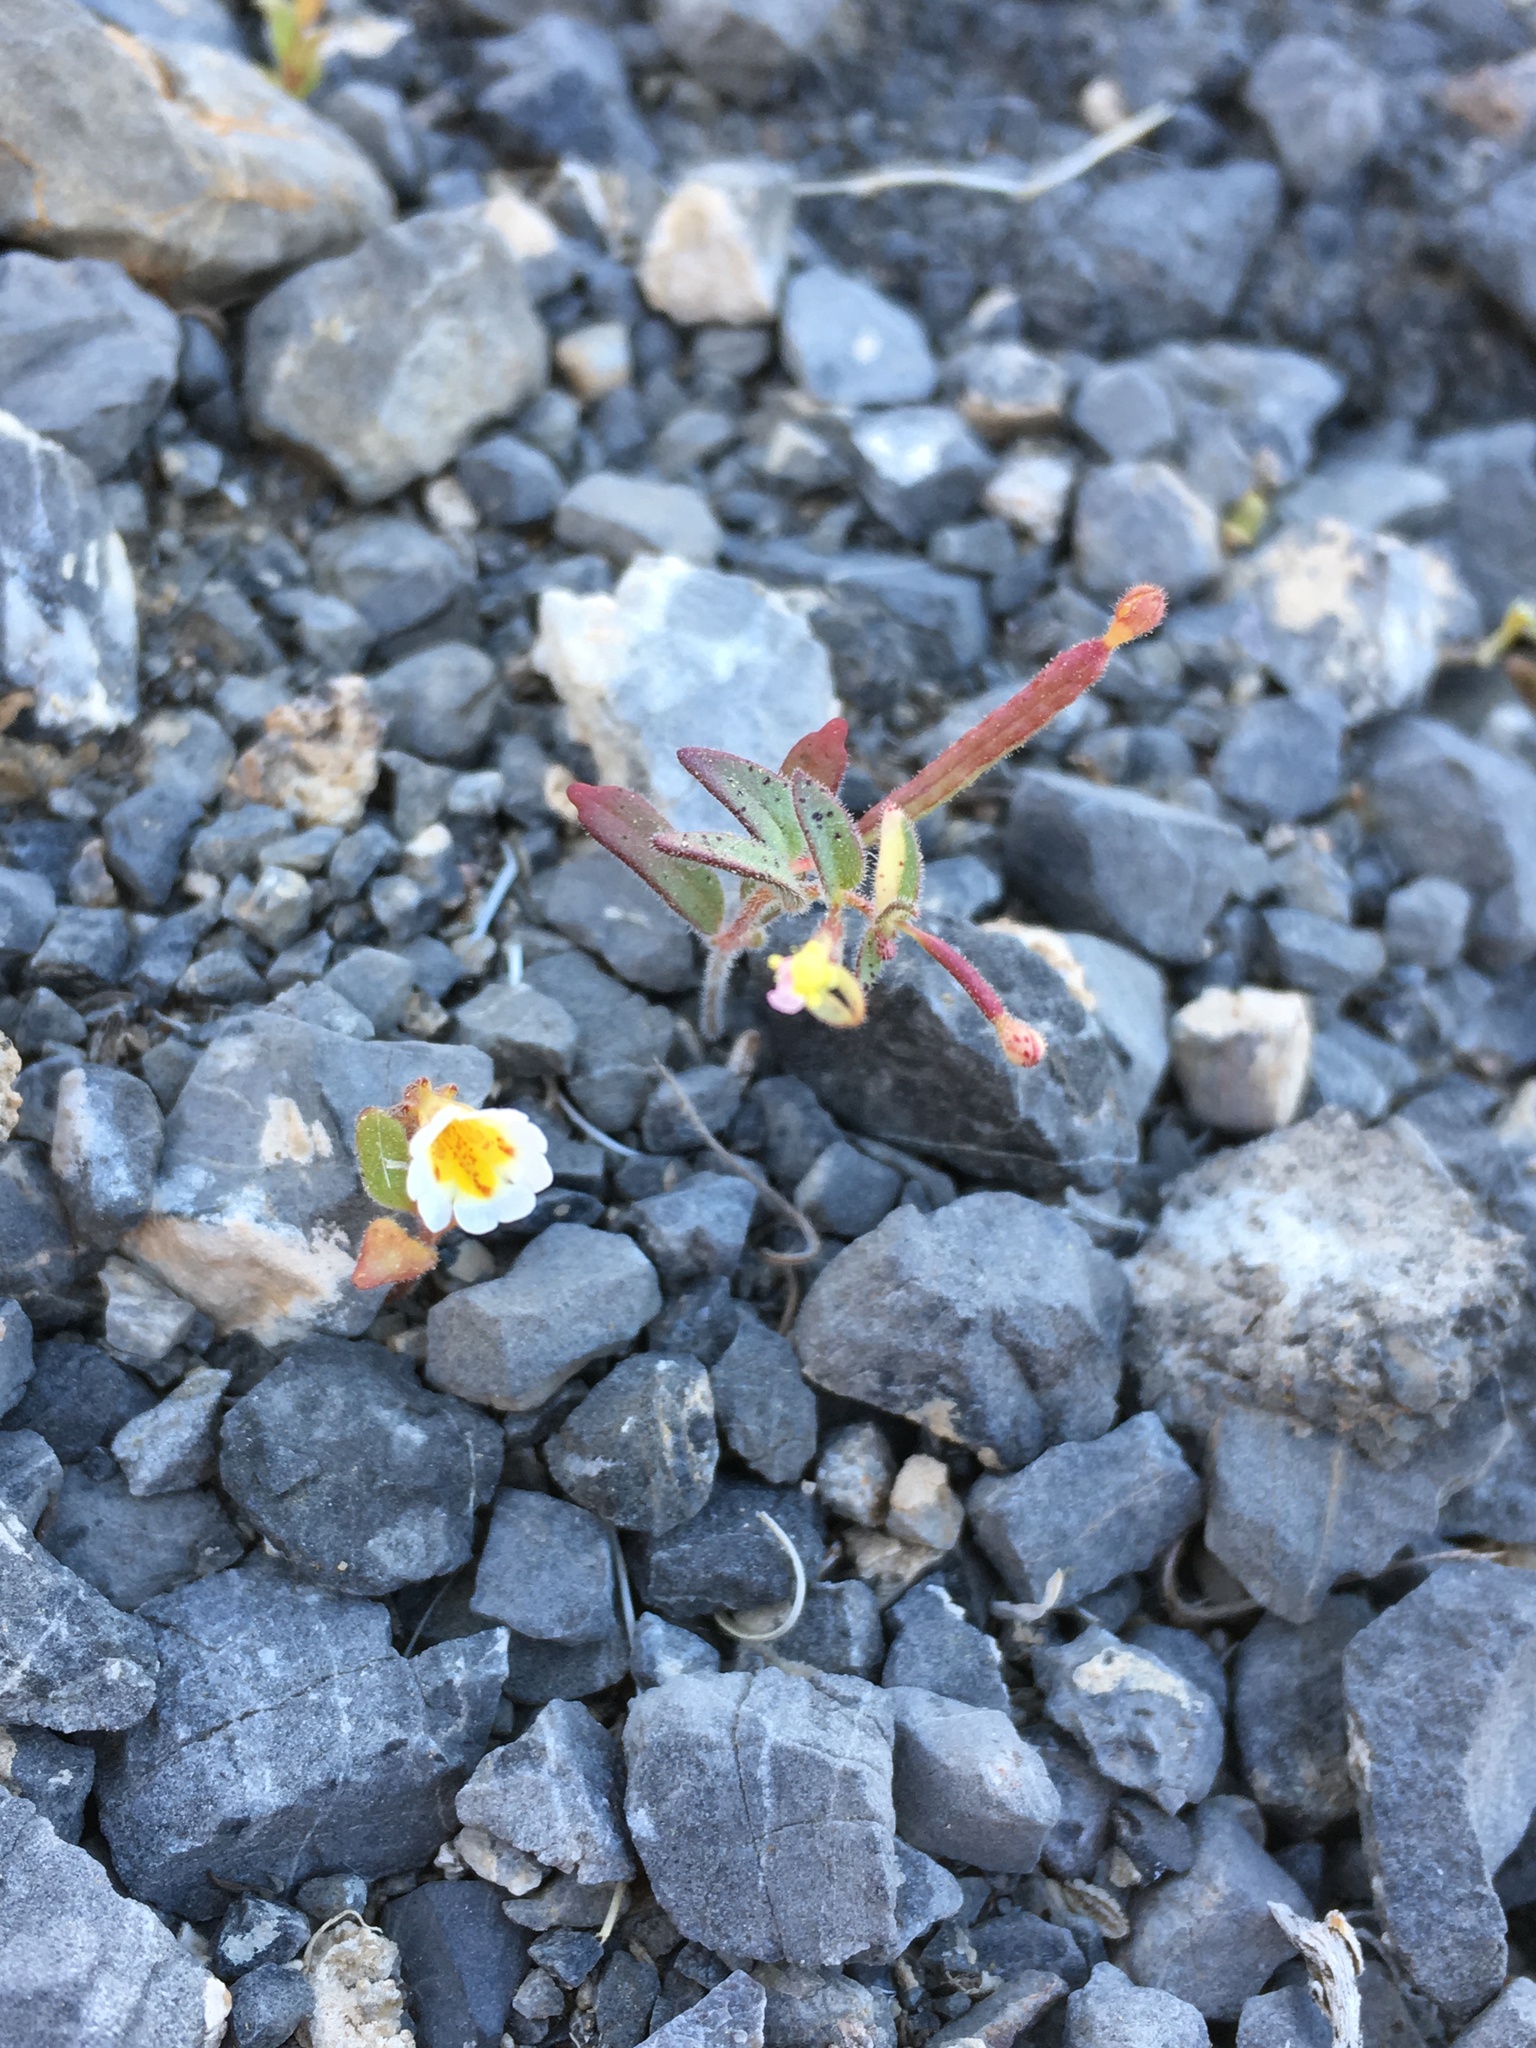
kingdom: Plantae
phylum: Tracheophyta
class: Magnoliopsida
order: Lamiales
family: Phrymaceae
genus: Erythranthe
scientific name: Erythranthe calcicola
